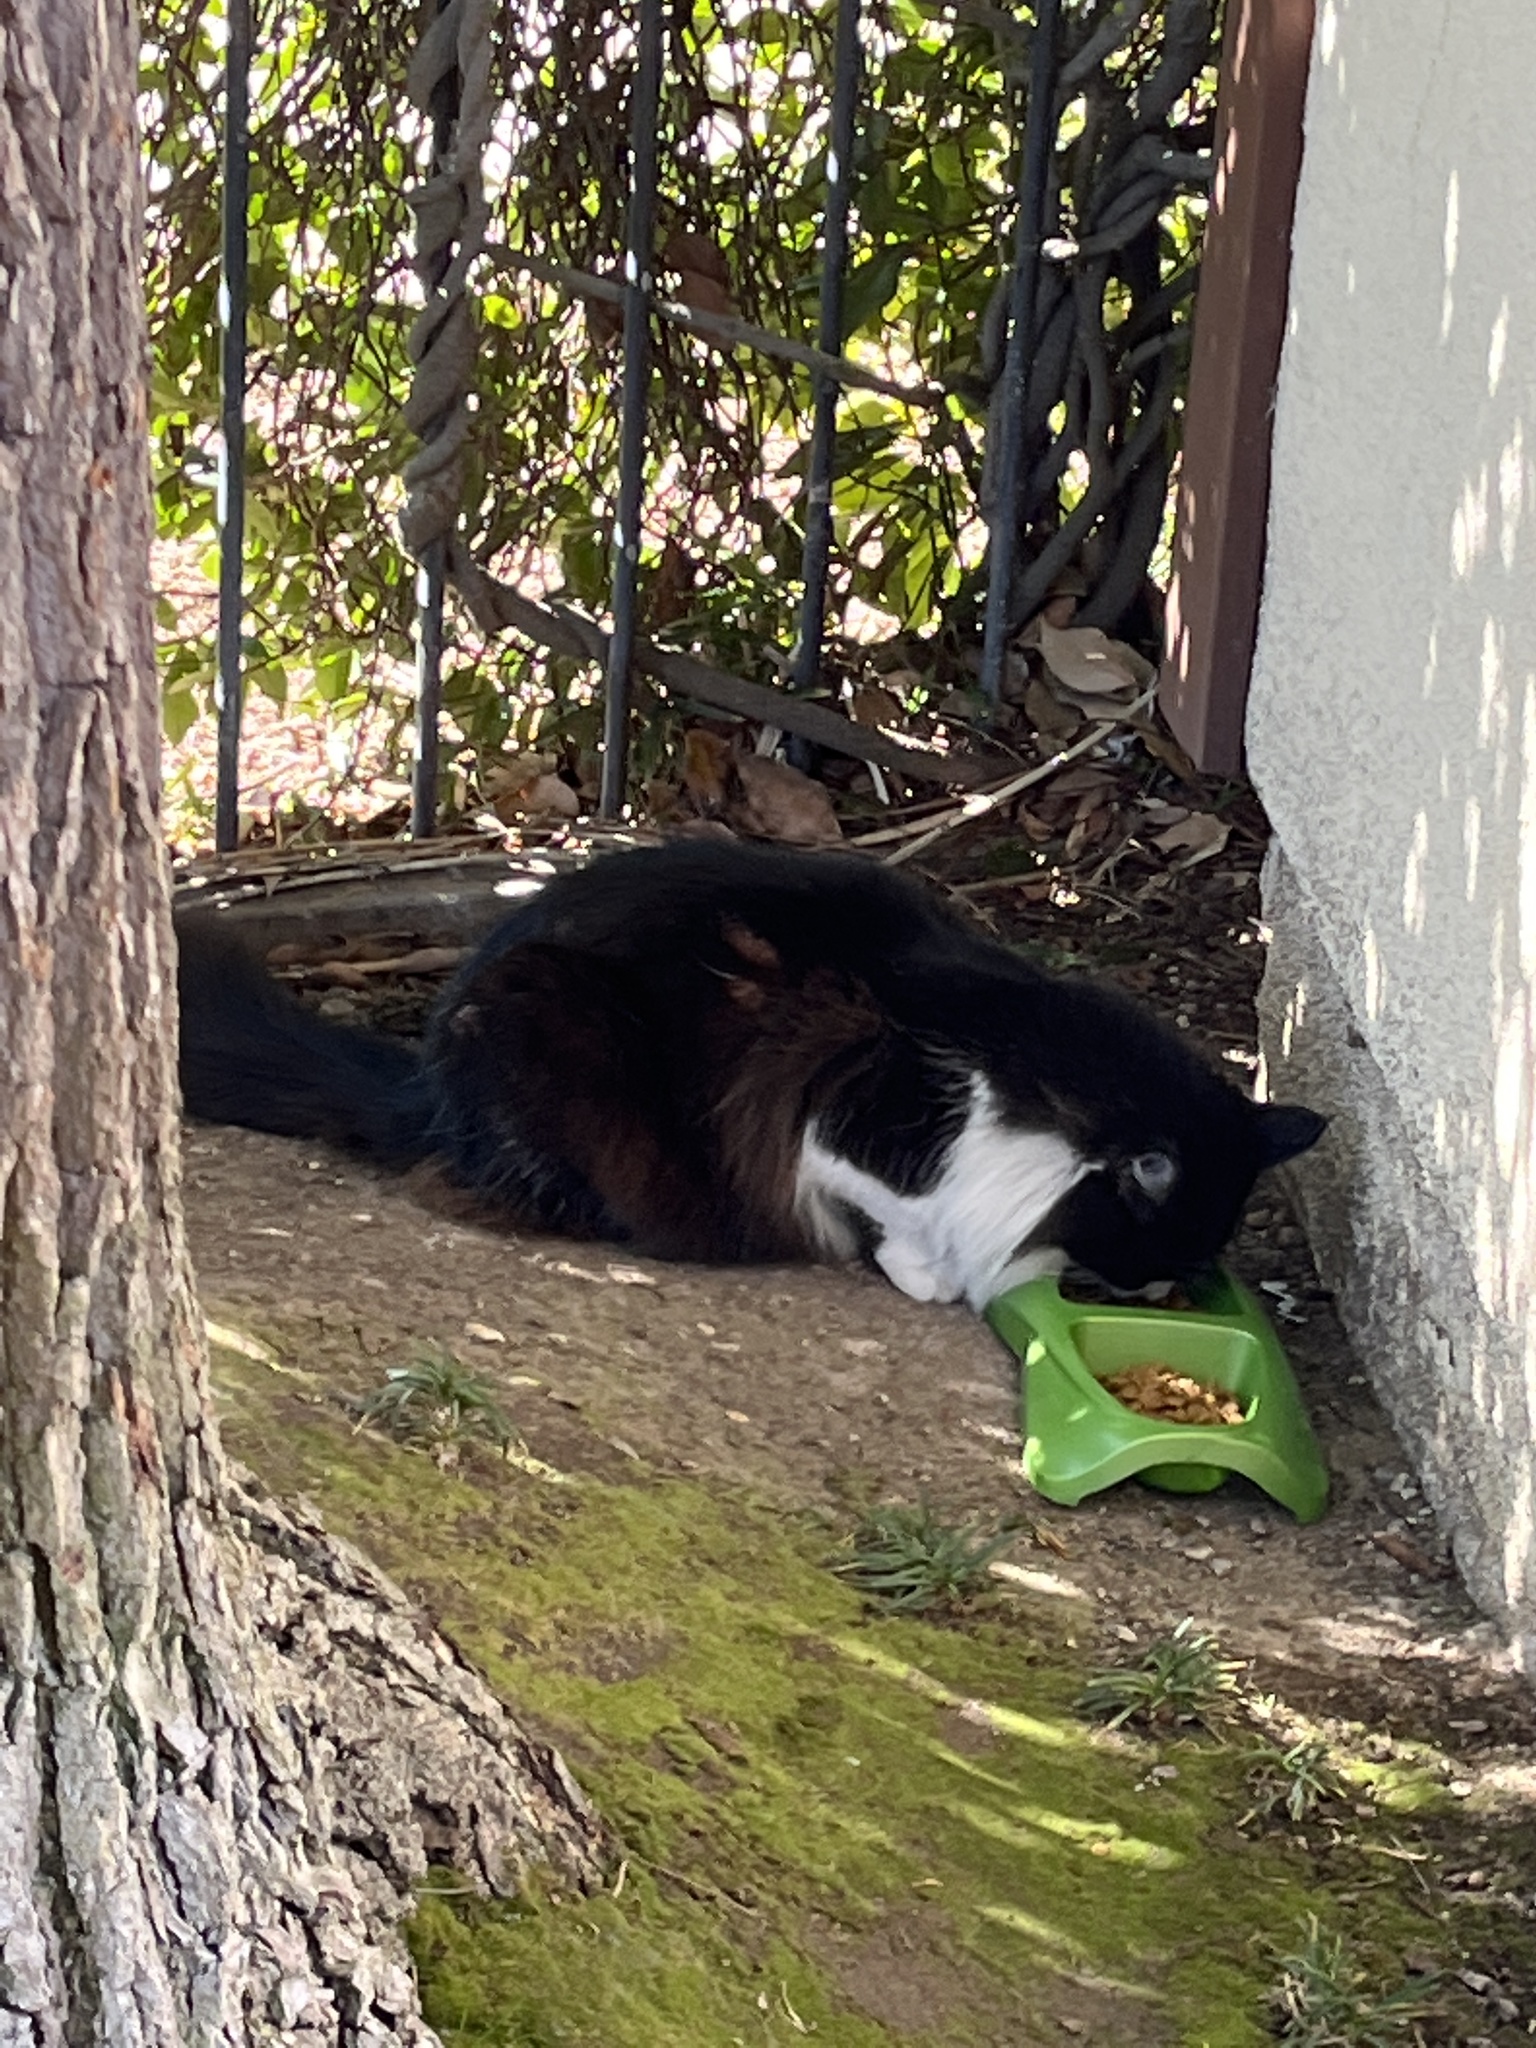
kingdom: Animalia
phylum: Chordata
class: Mammalia
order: Carnivora
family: Felidae
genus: Felis
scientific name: Felis catus
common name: Domestic cat
